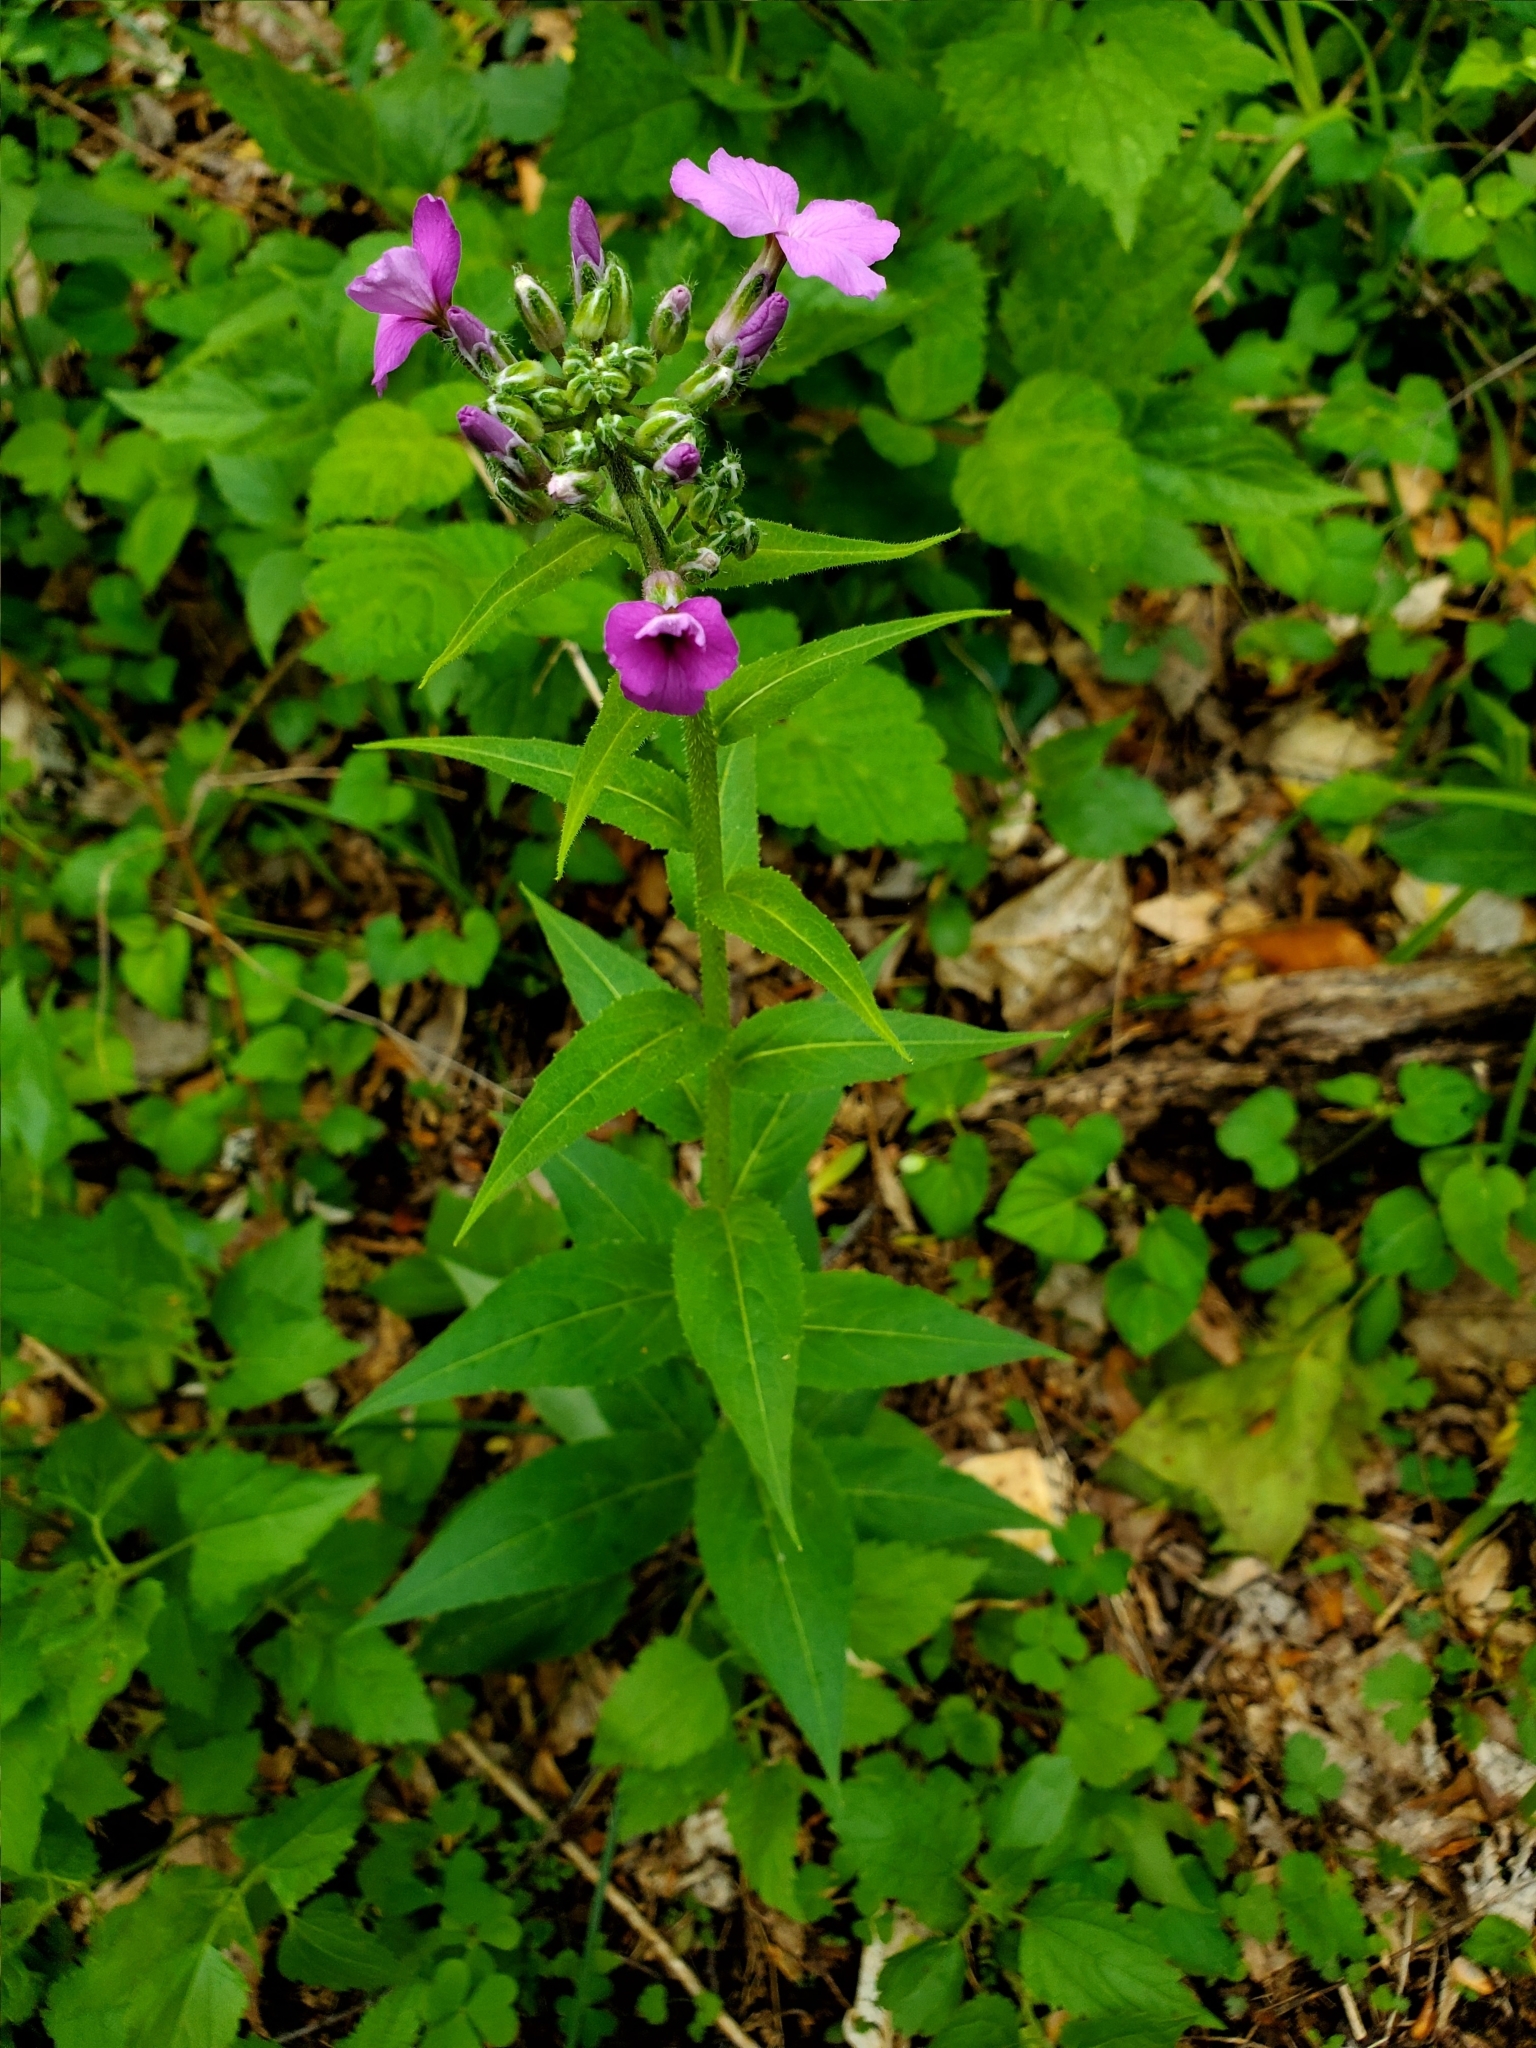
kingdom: Plantae
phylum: Tracheophyta
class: Magnoliopsida
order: Brassicales
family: Brassicaceae
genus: Hesperis
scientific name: Hesperis matronalis
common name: Dame's-violet
